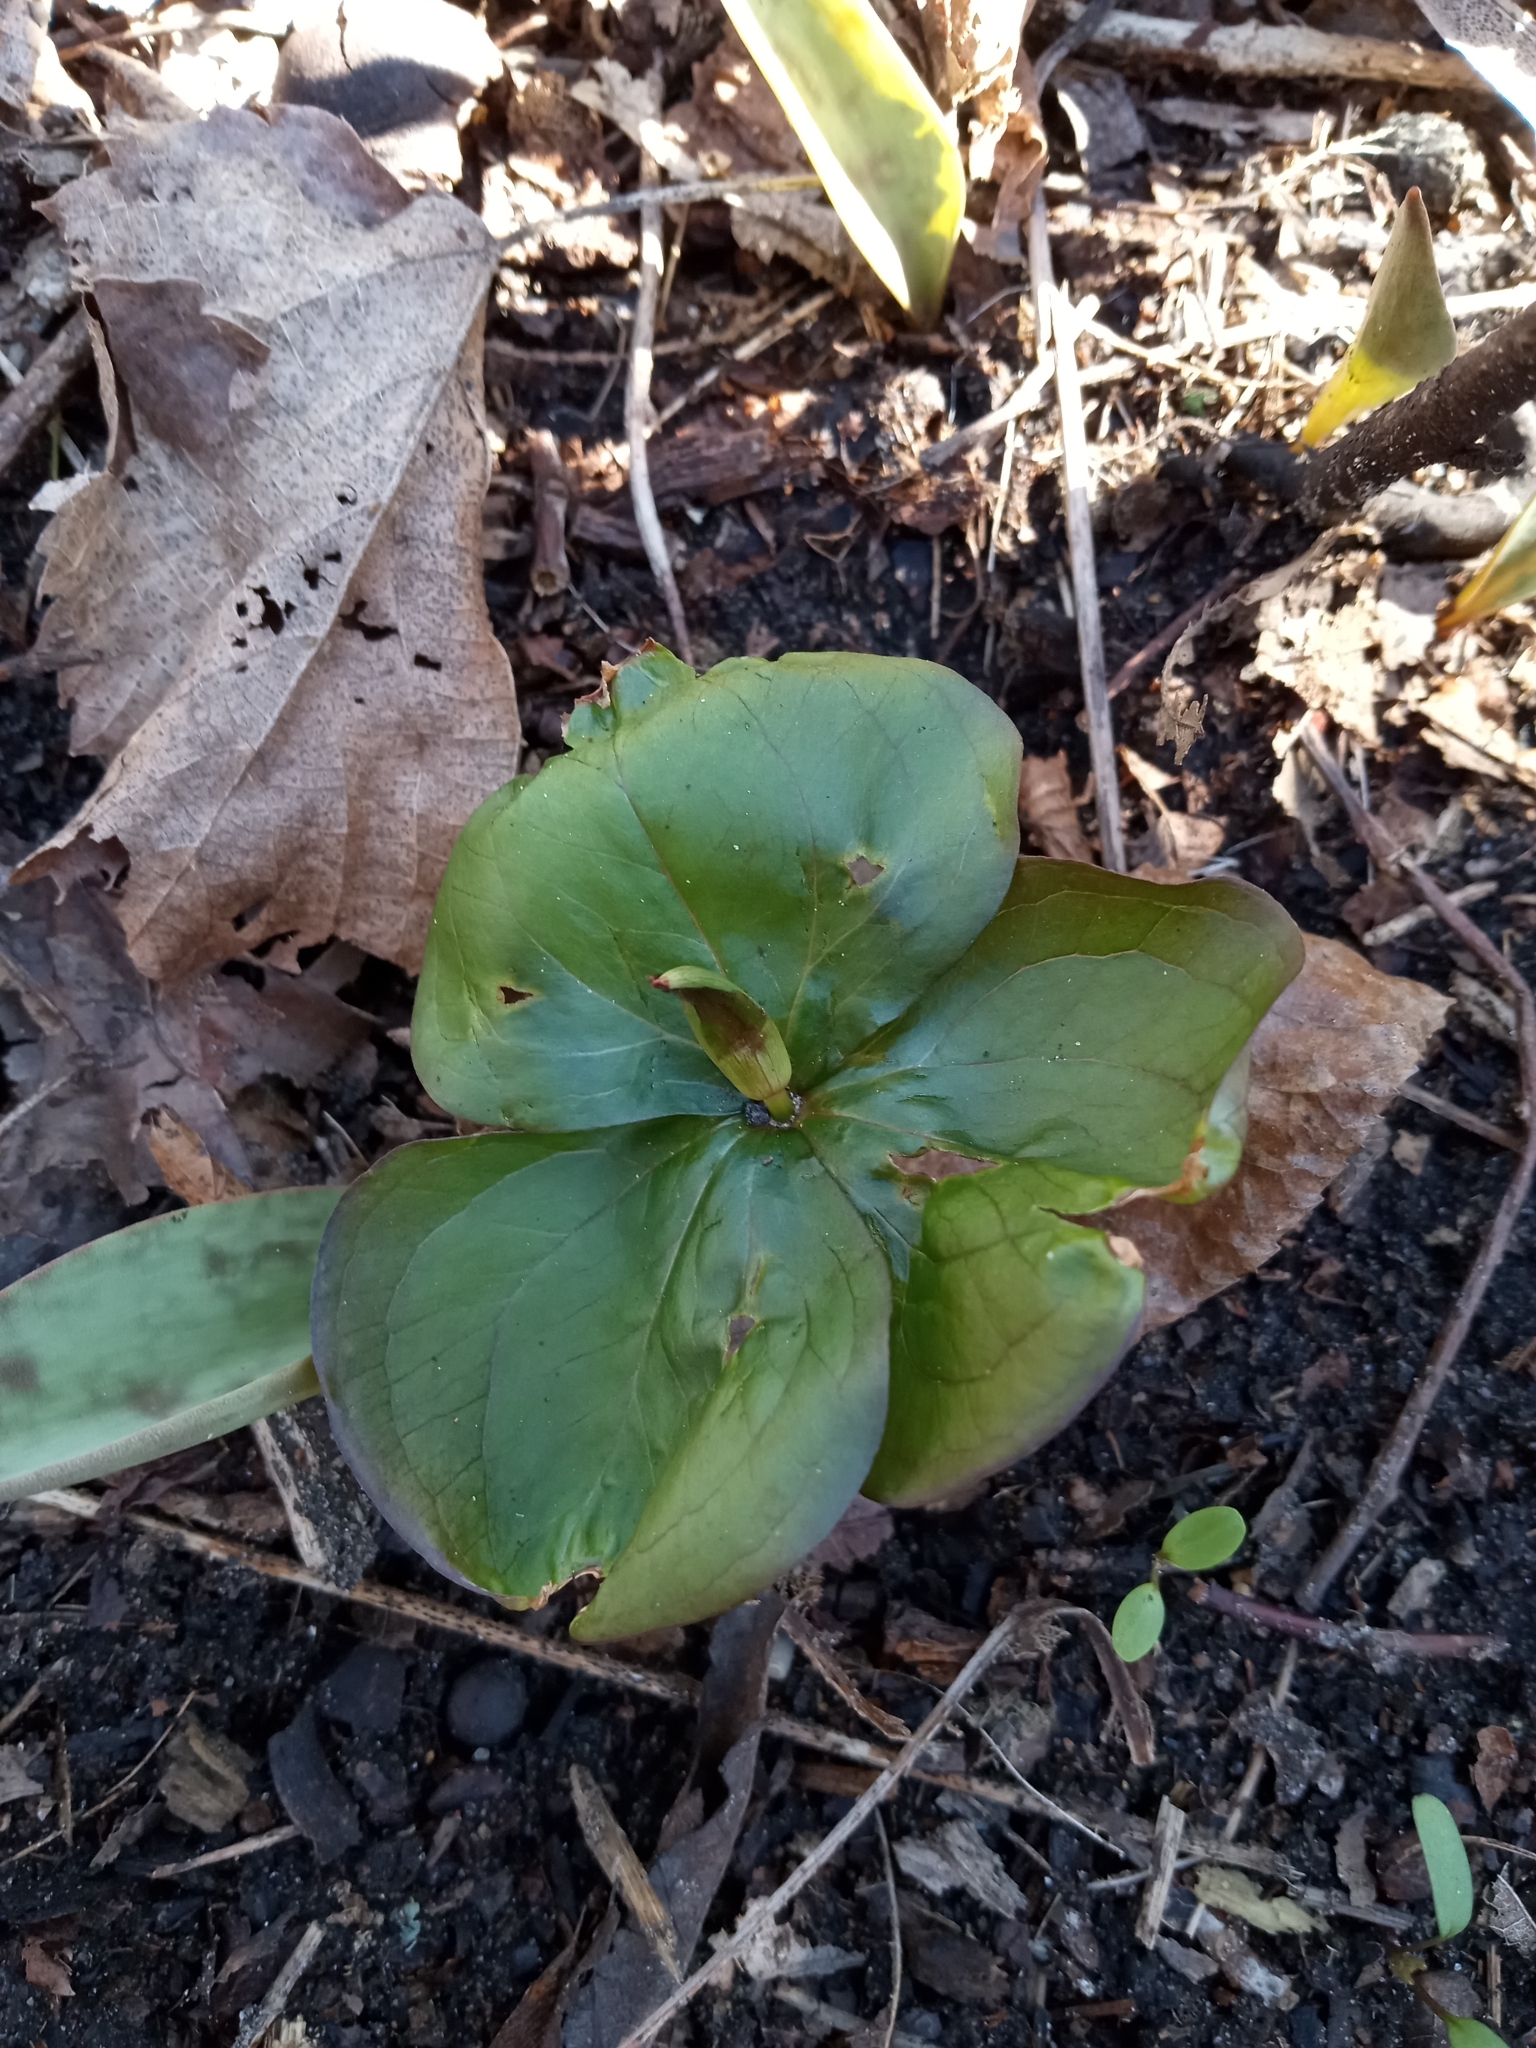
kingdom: Plantae
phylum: Tracheophyta
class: Liliopsida
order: Liliales
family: Melanthiaceae
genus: Trillium
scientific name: Trillium grandiflorum
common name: Great white trillium
